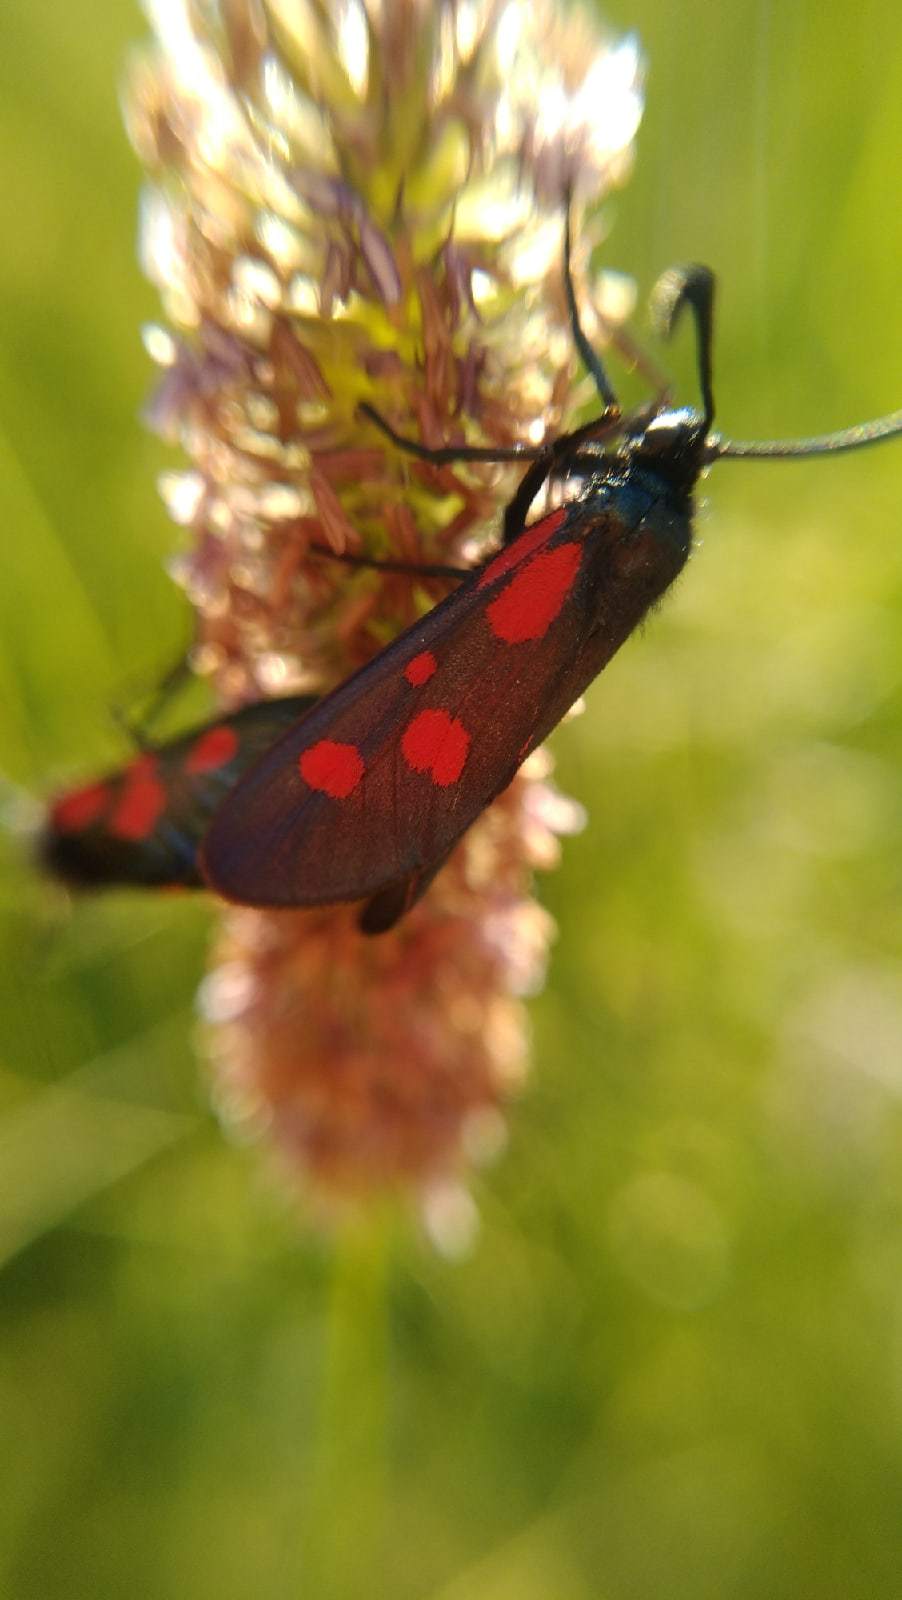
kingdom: Animalia
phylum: Arthropoda
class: Insecta
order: Lepidoptera
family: Zygaenidae
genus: Zygaena
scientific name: Zygaena viciae
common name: New forest burnet
